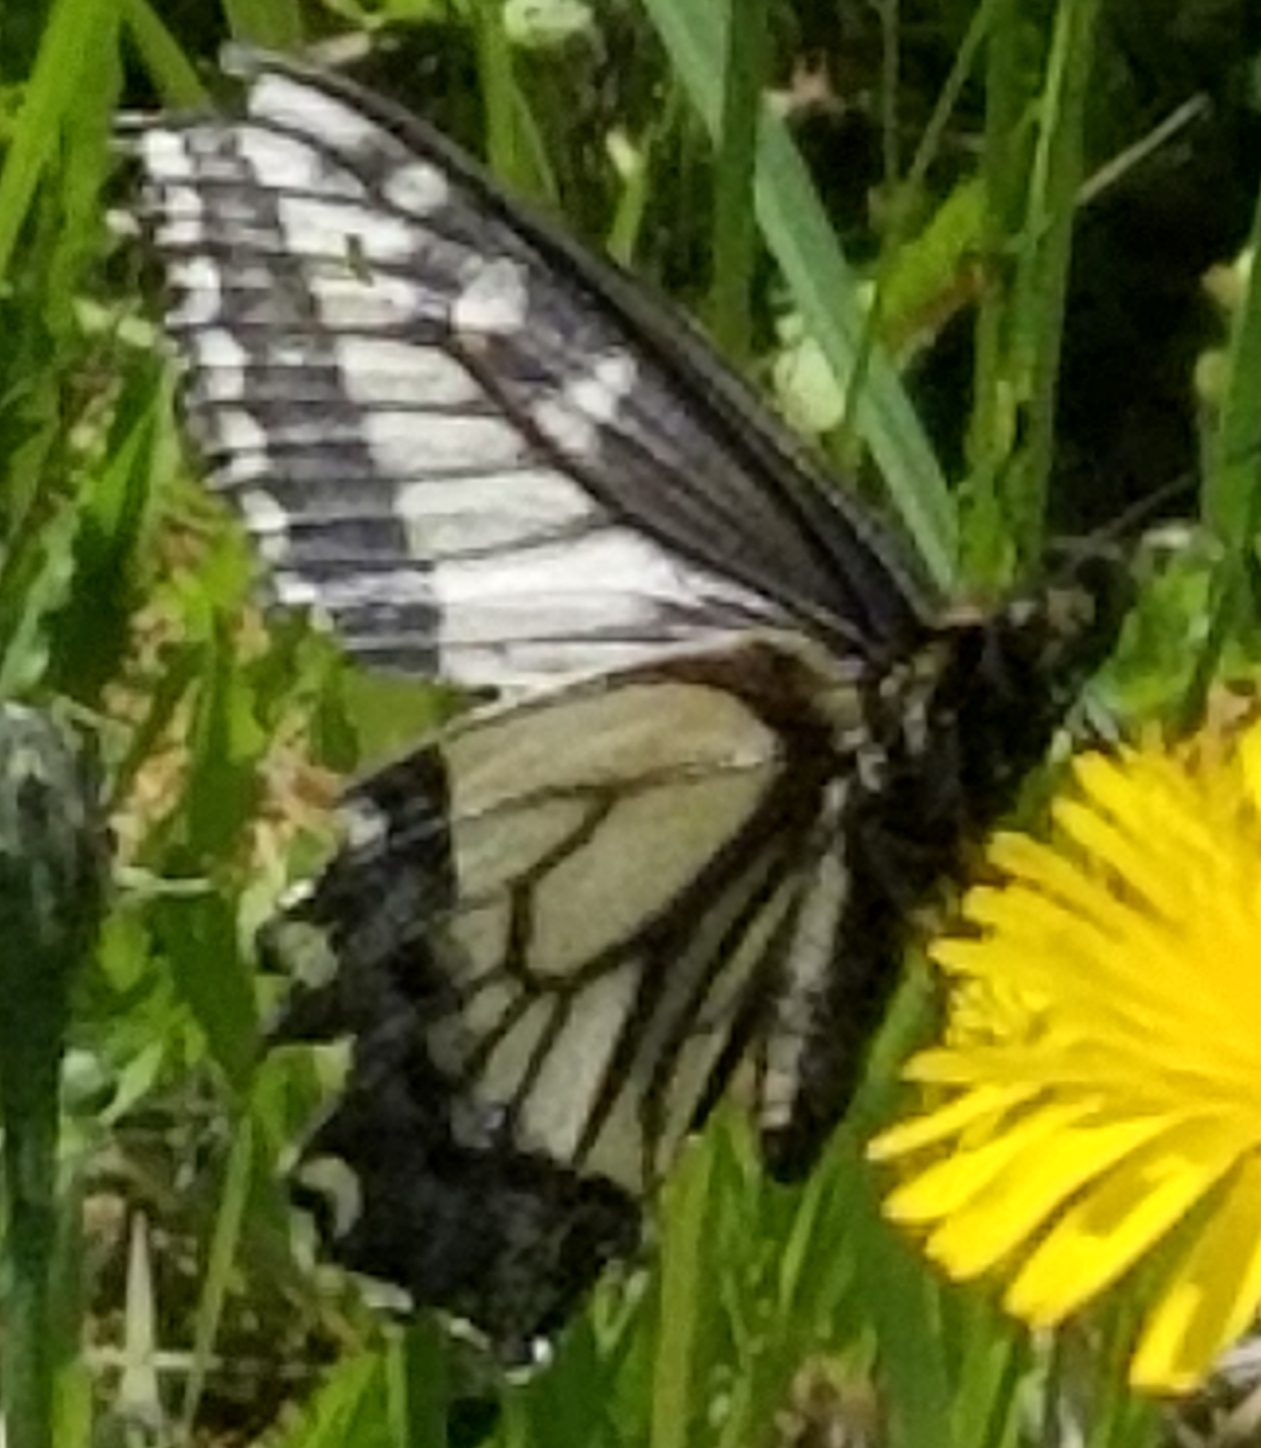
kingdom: Animalia
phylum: Arthropoda
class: Insecta
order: Lepidoptera
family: Papilionidae
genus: Papilio
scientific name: Papilio zelicaon
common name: Anise swallowtail
